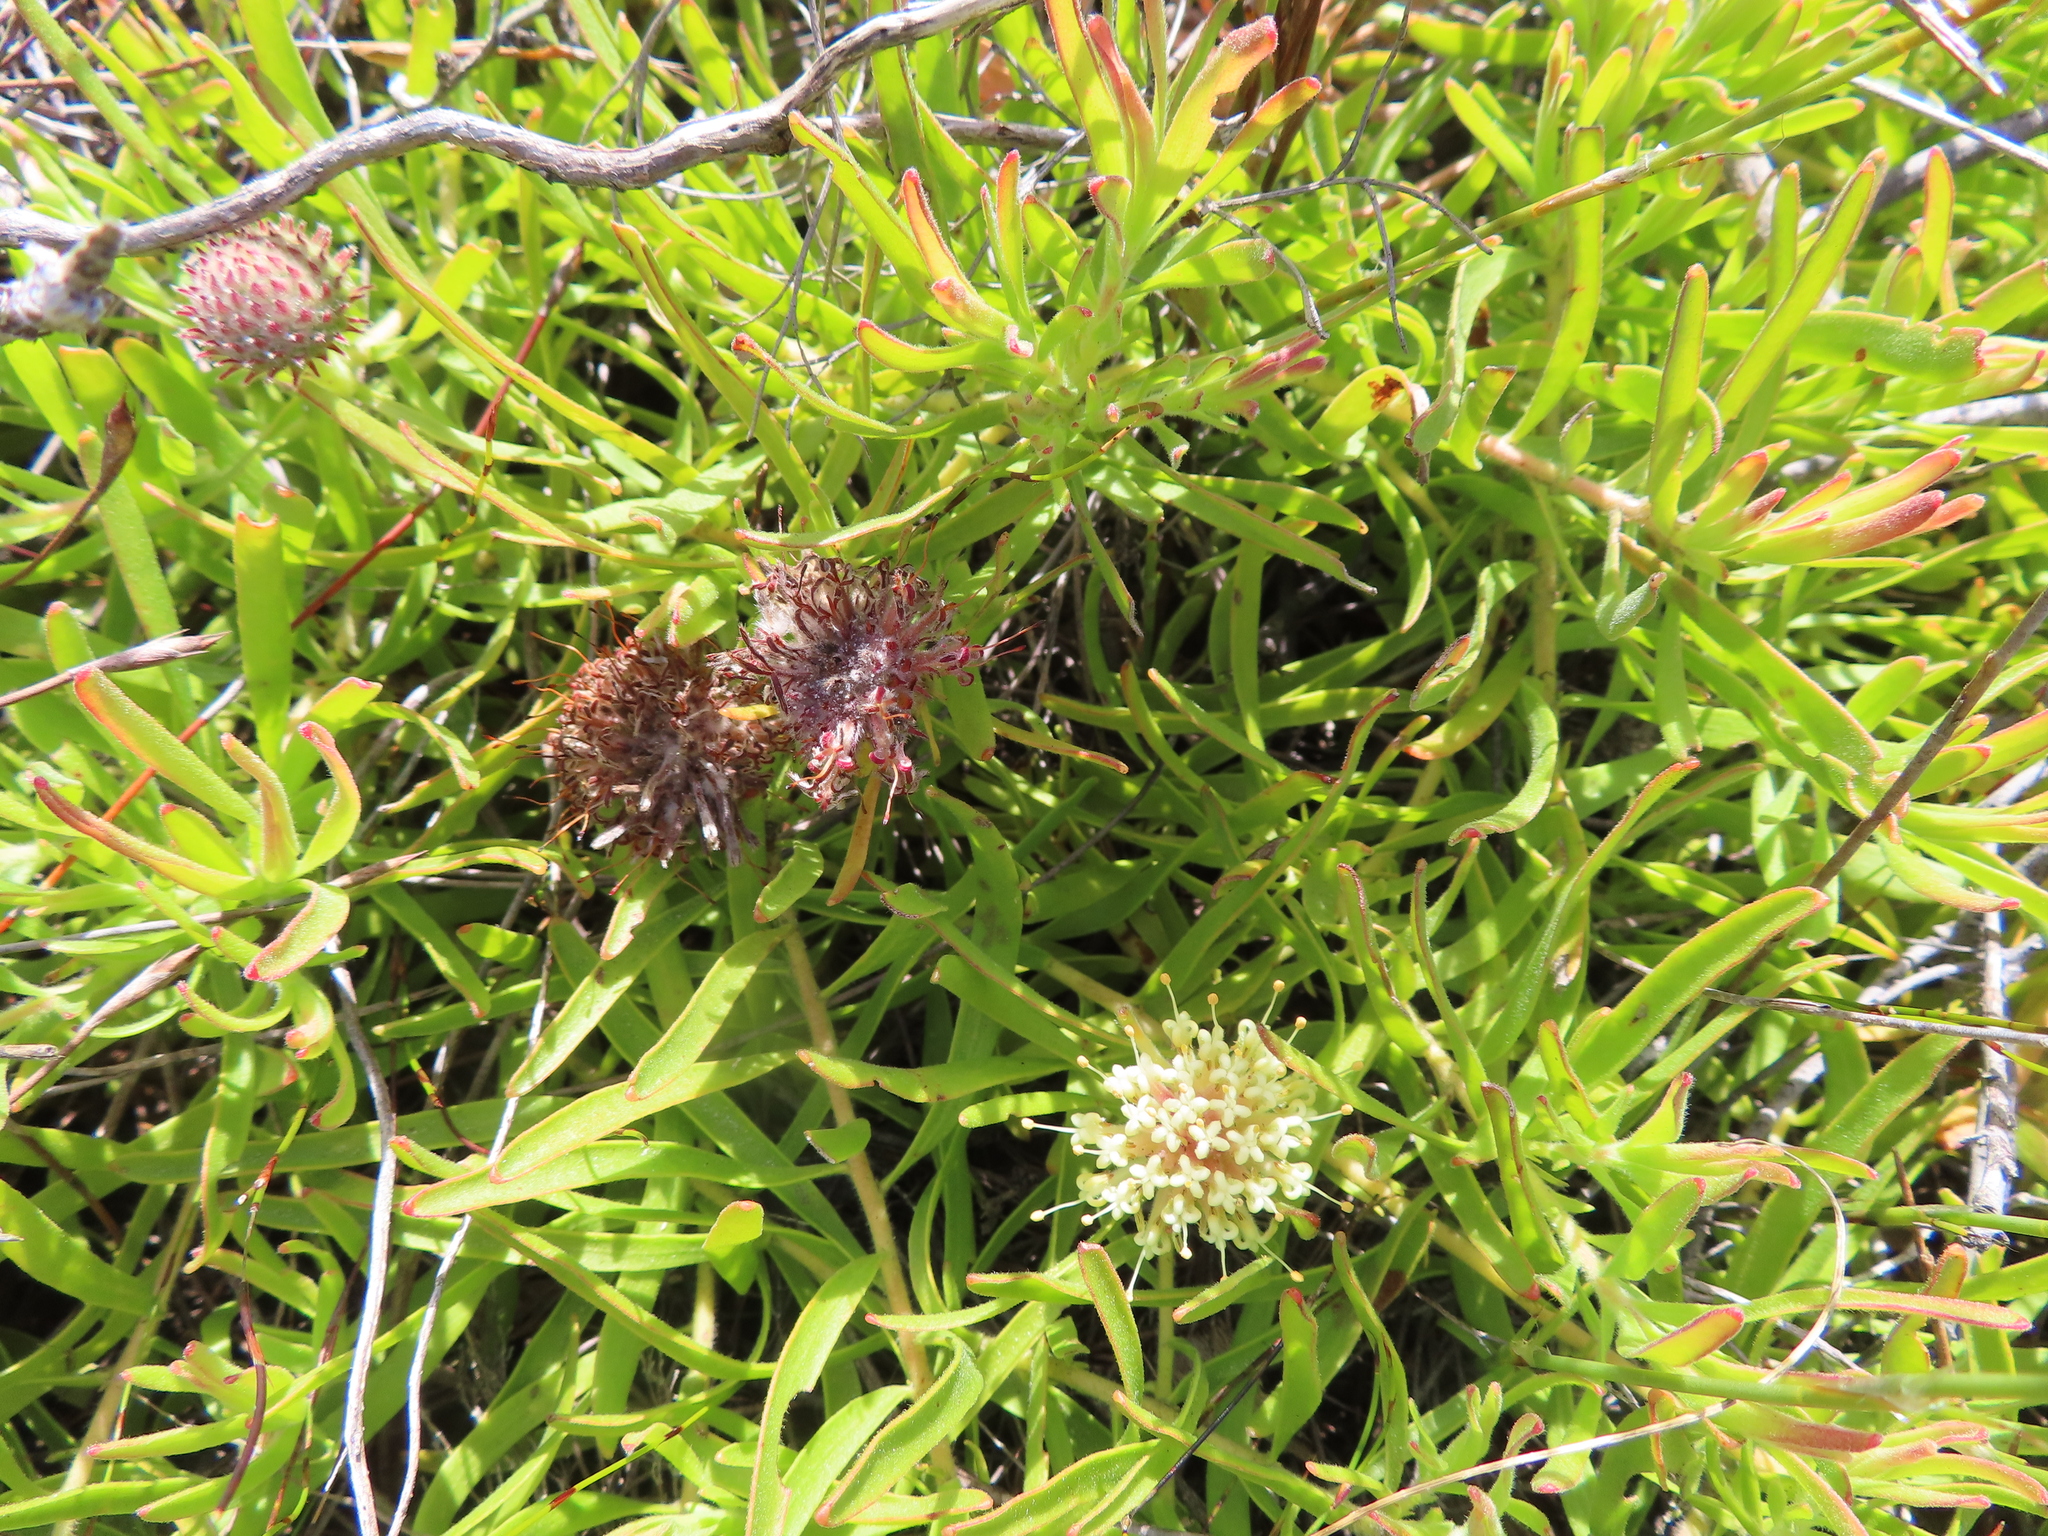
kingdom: Plantae
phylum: Tracheophyta
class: Magnoliopsida
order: Proteales
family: Proteaceae
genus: Leucospermum
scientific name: Leucospermum heterophyllum
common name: Trident pincushion
